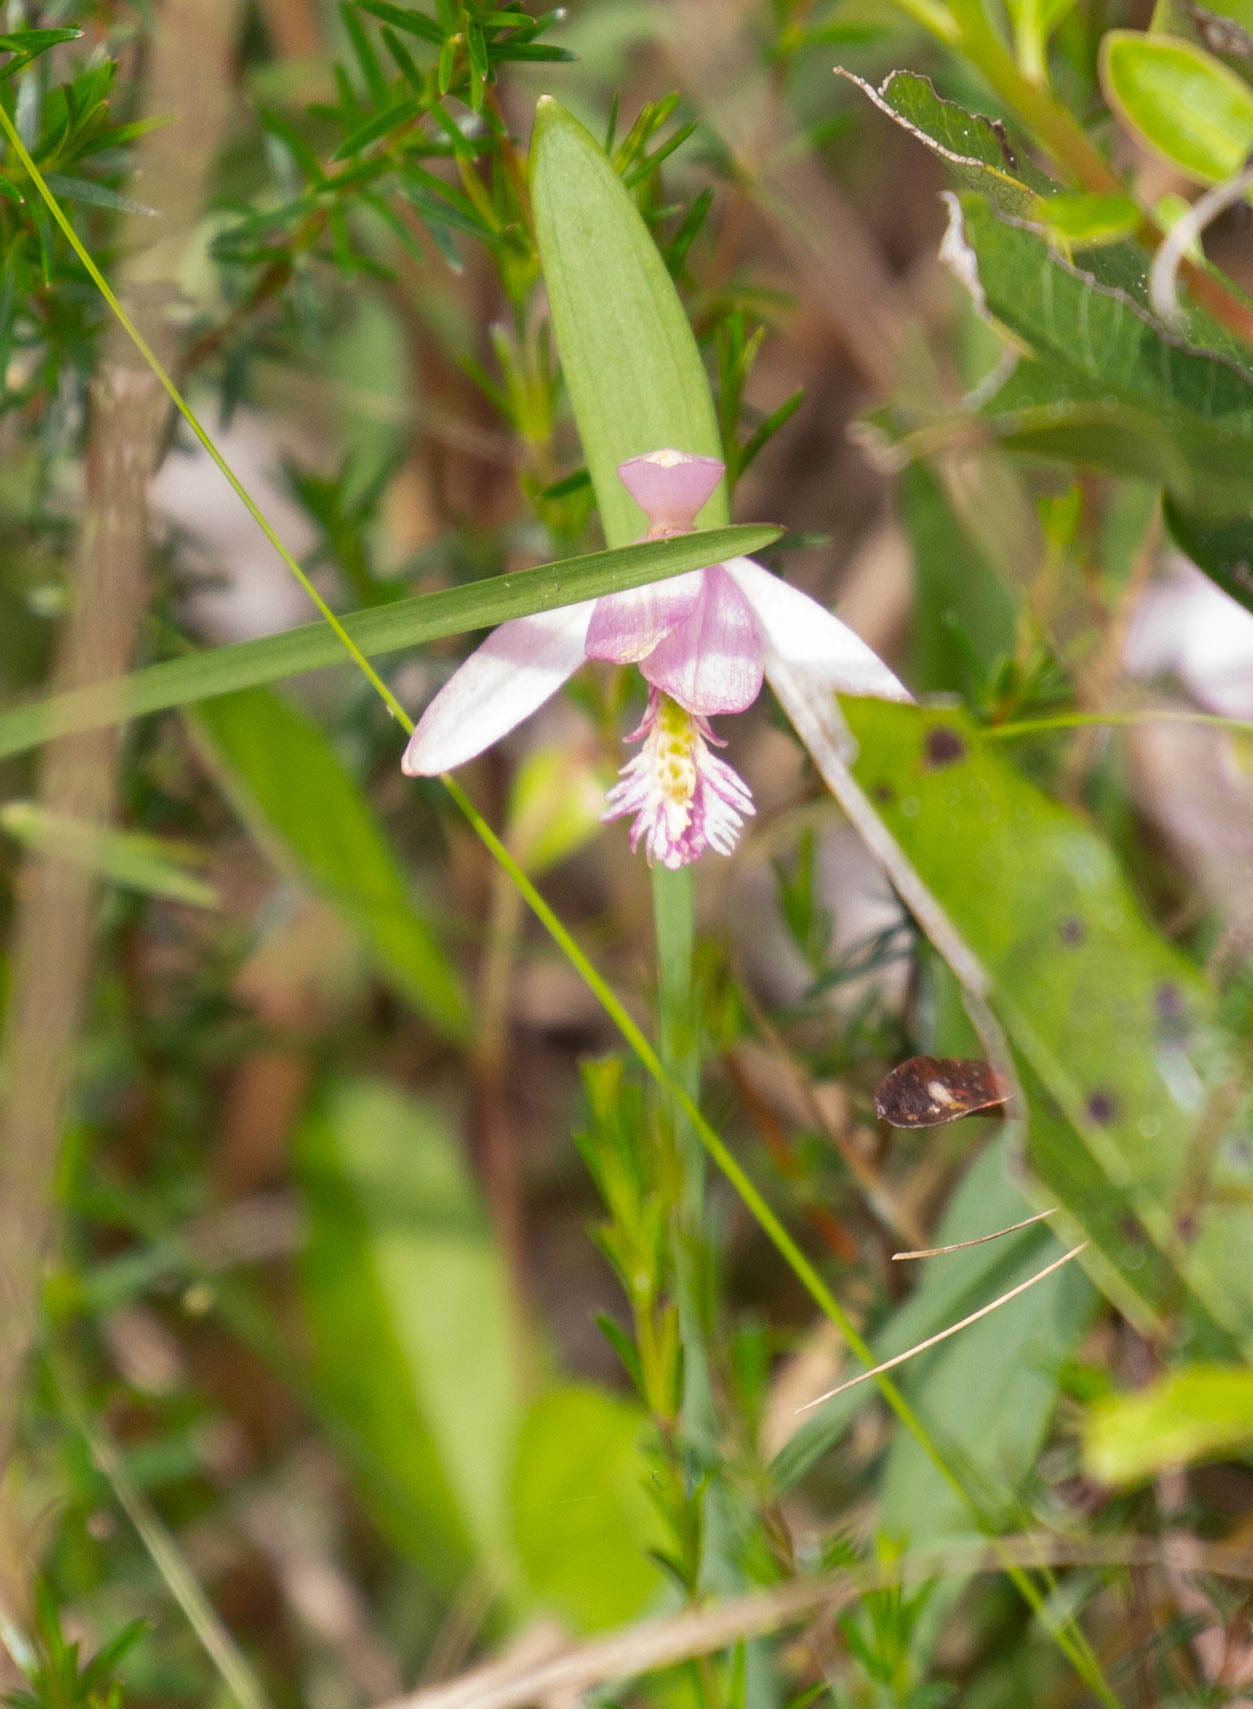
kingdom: Plantae
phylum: Tracheophyta
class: Liliopsida
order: Asparagales
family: Orchidaceae
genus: Pogonia
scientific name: Pogonia ophioglossoides
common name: Rose pogonia
